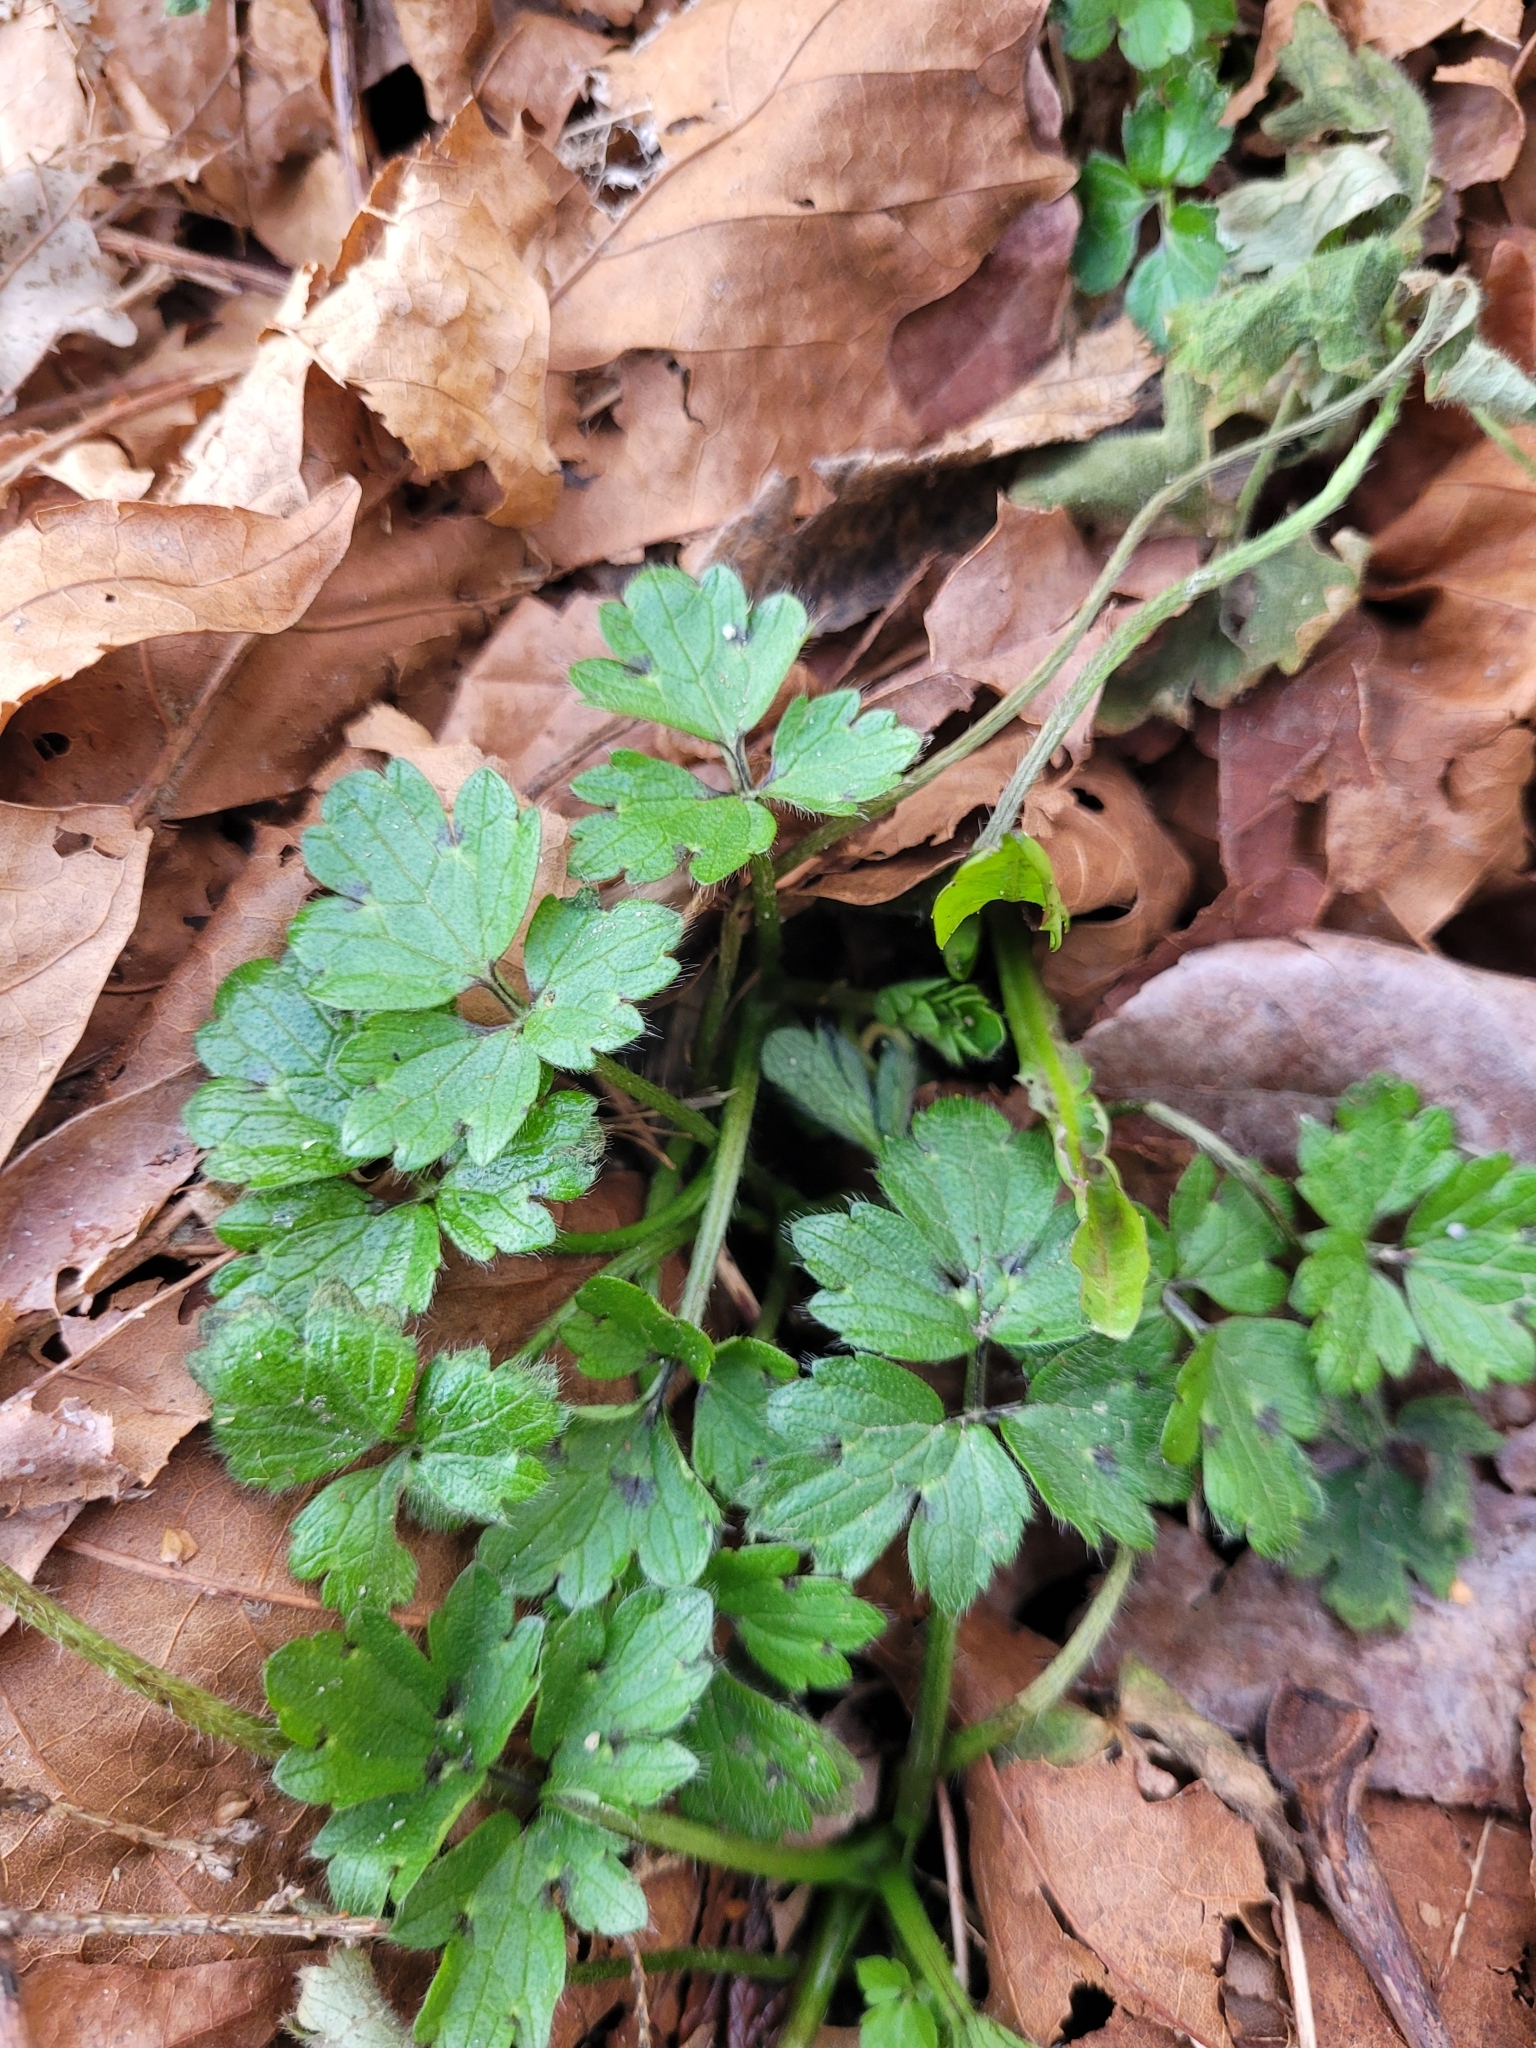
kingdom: Plantae
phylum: Tracheophyta
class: Magnoliopsida
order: Ranunculales
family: Ranunculaceae
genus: Ranunculus
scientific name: Ranunculus repens
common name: Creeping buttercup
